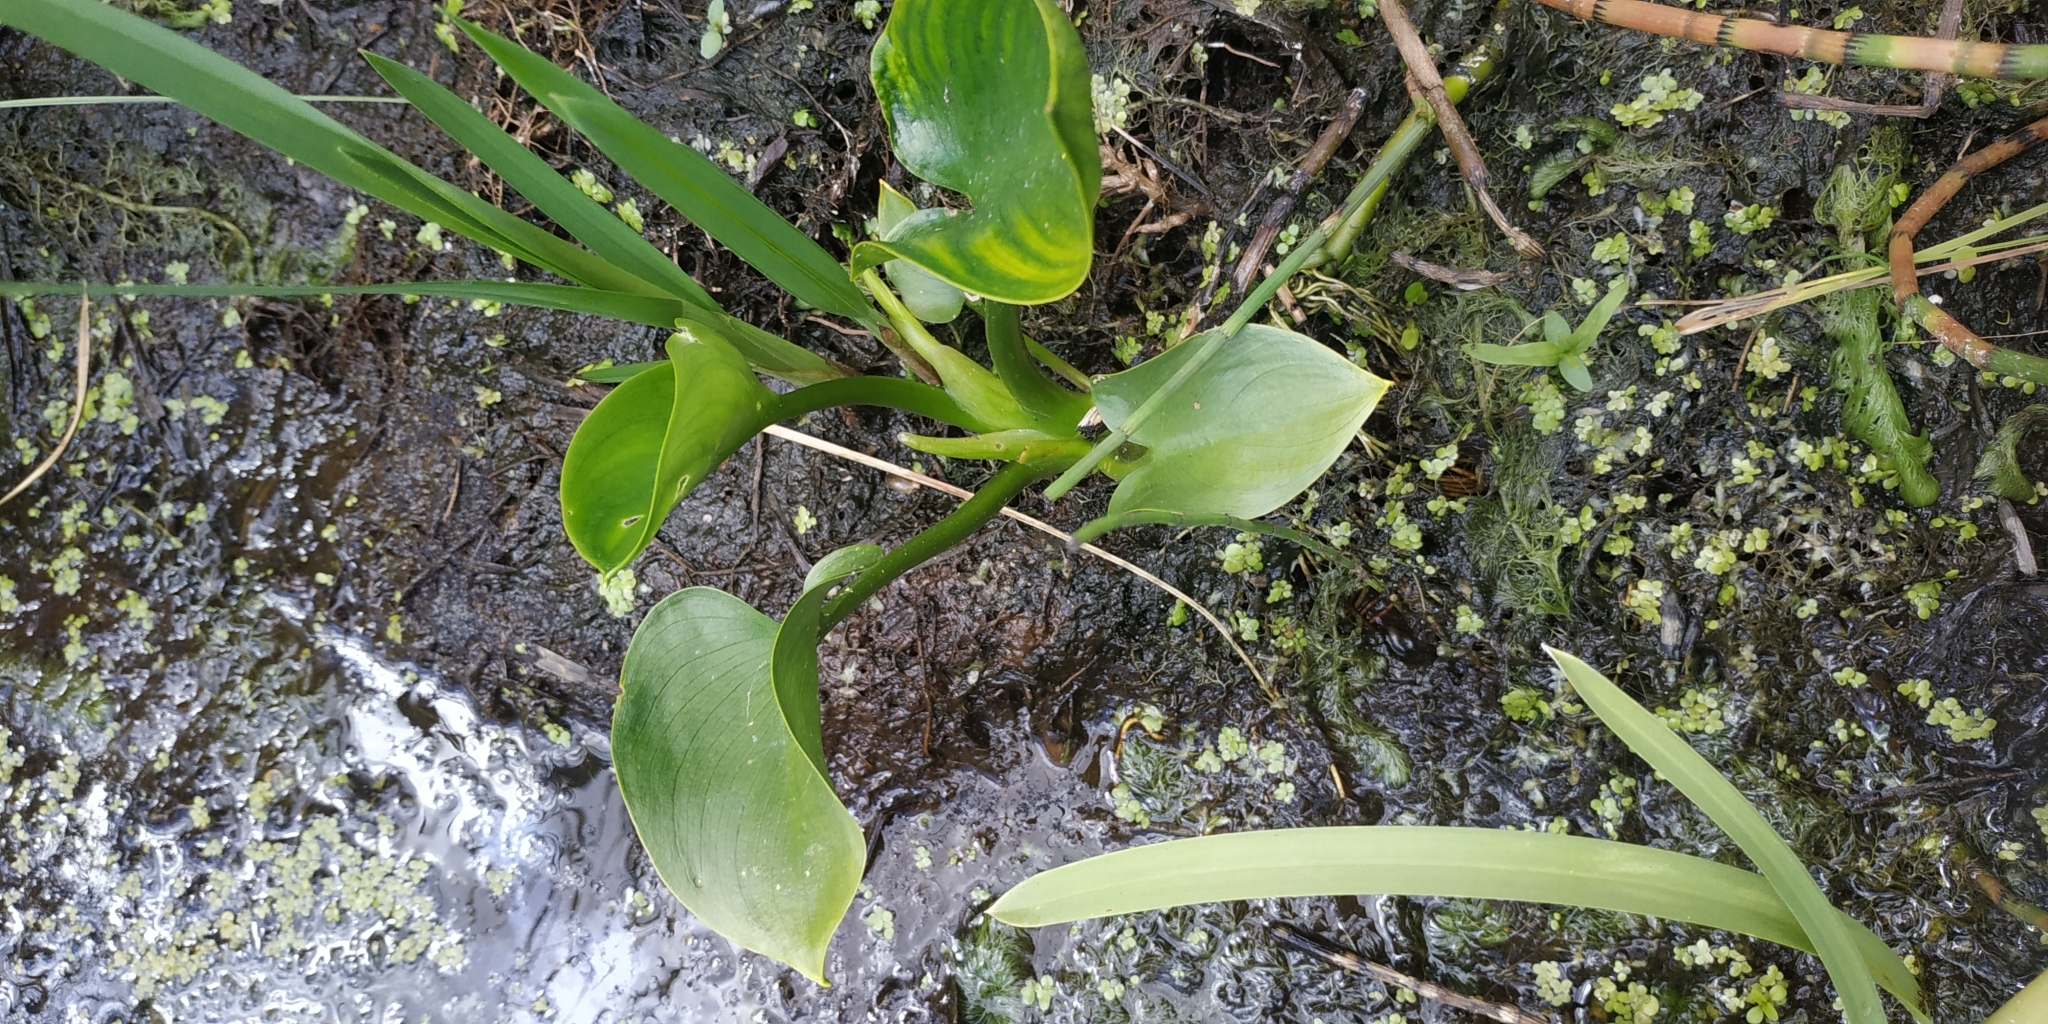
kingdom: Plantae
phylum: Tracheophyta
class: Liliopsida
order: Alismatales
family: Araceae
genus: Calla
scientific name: Calla palustris
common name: Bog arum
